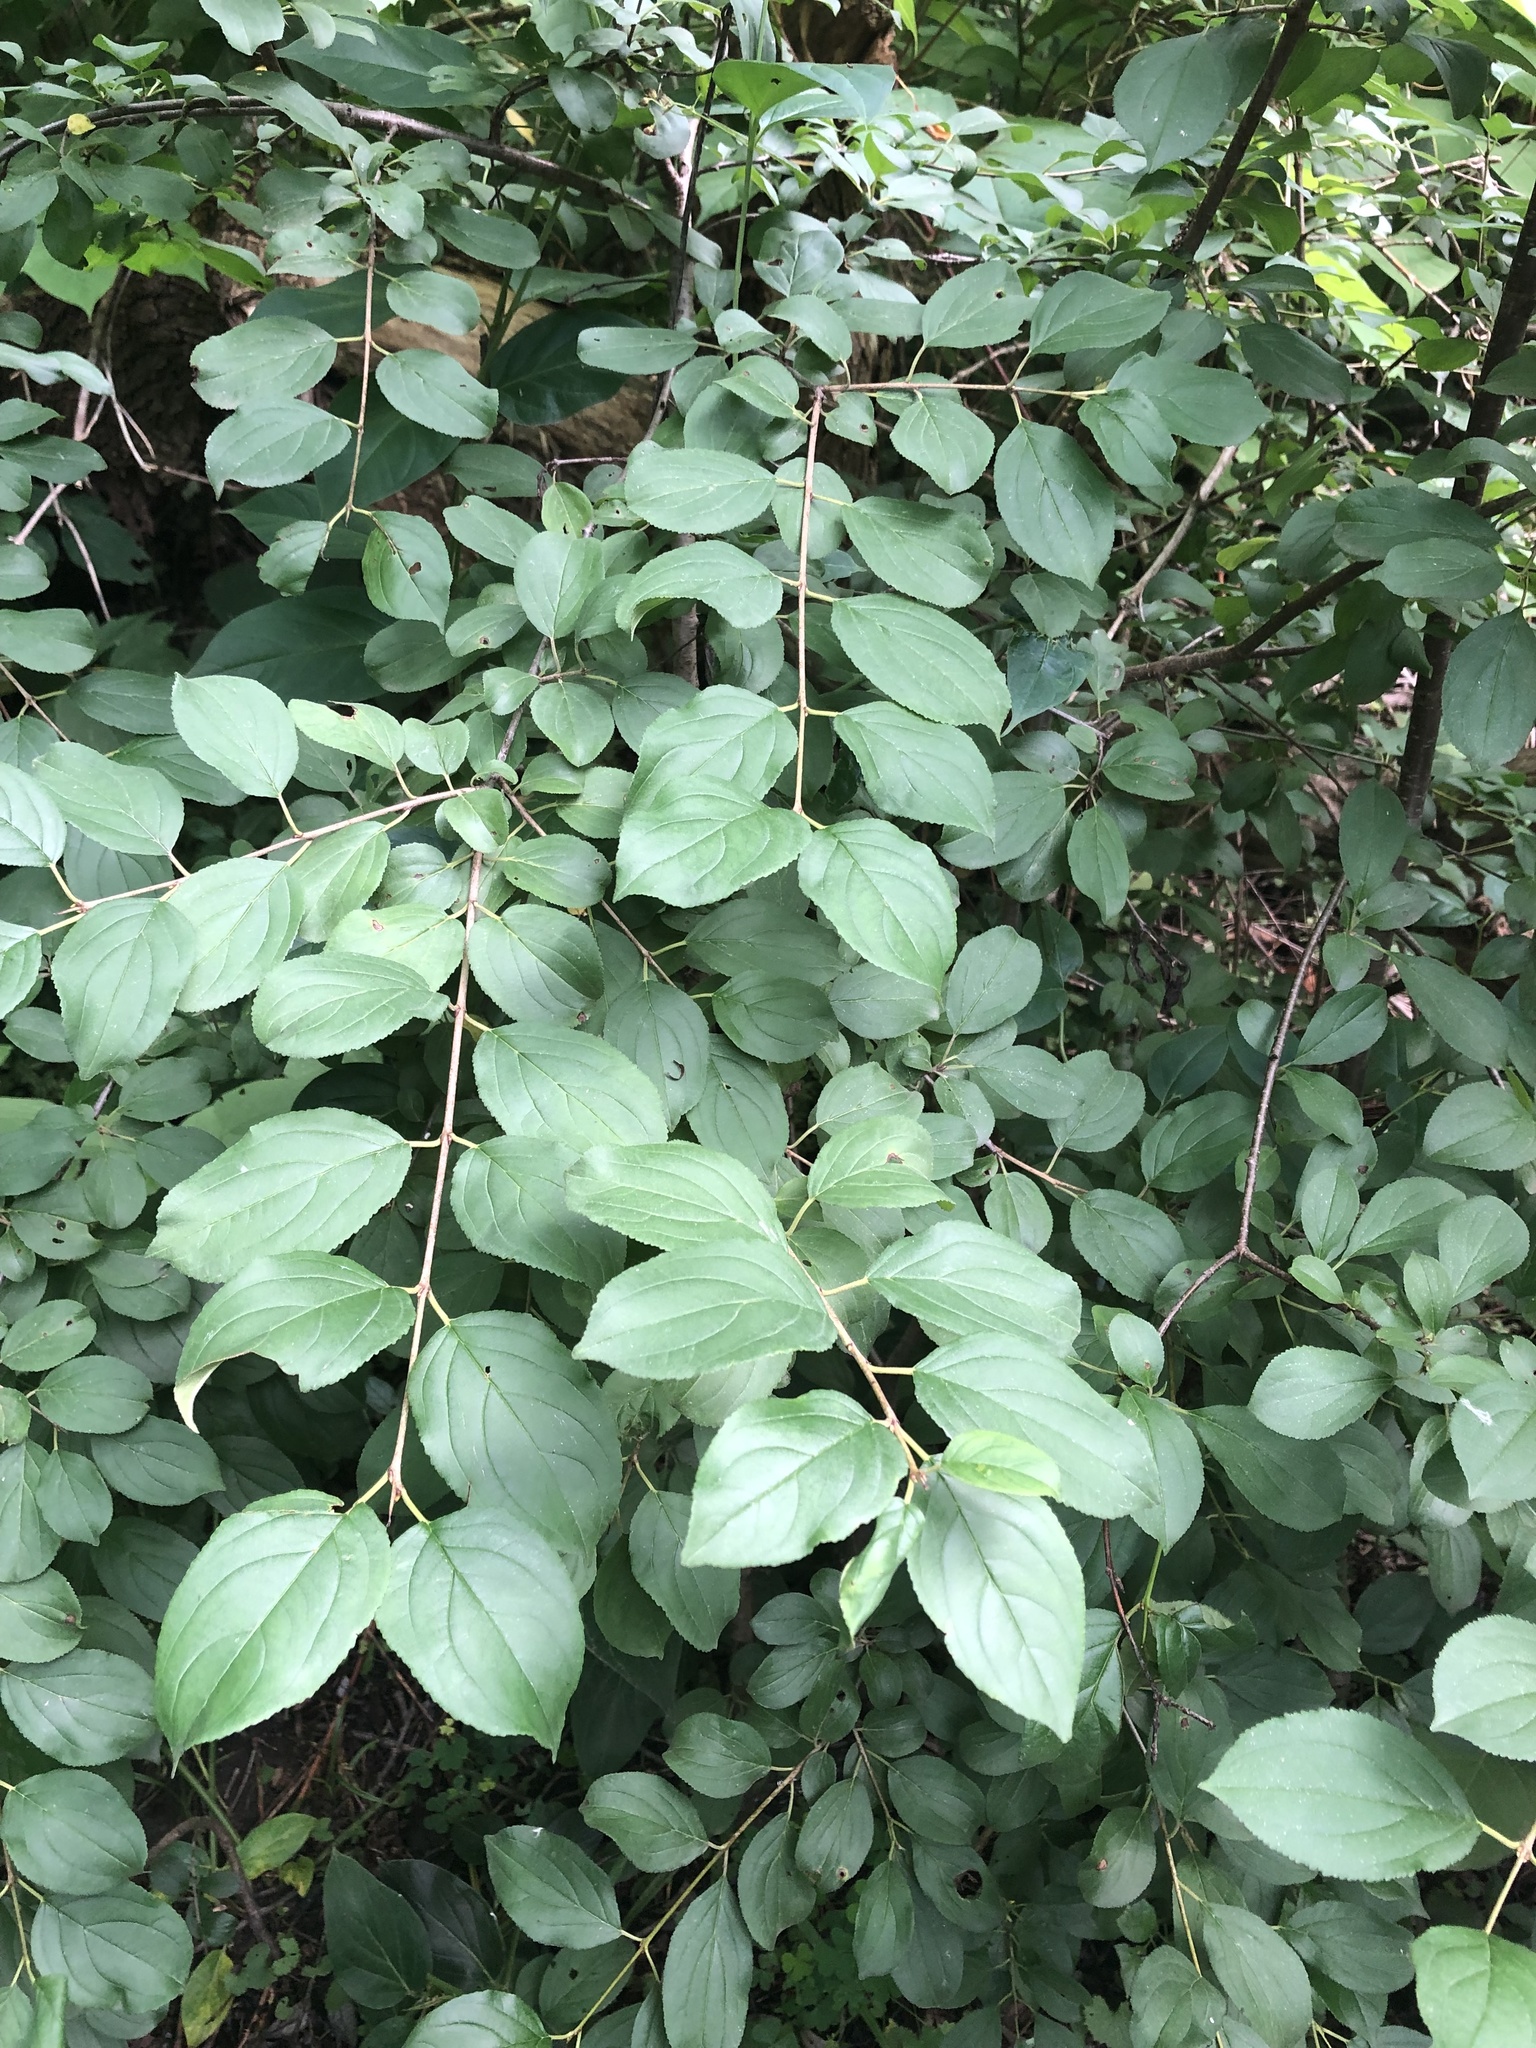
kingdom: Plantae
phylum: Tracheophyta
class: Magnoliopsida
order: Rosales
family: Rhamnaceae
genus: Rhamnus
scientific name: Rhamnus cathartica
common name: Common buckthorn
